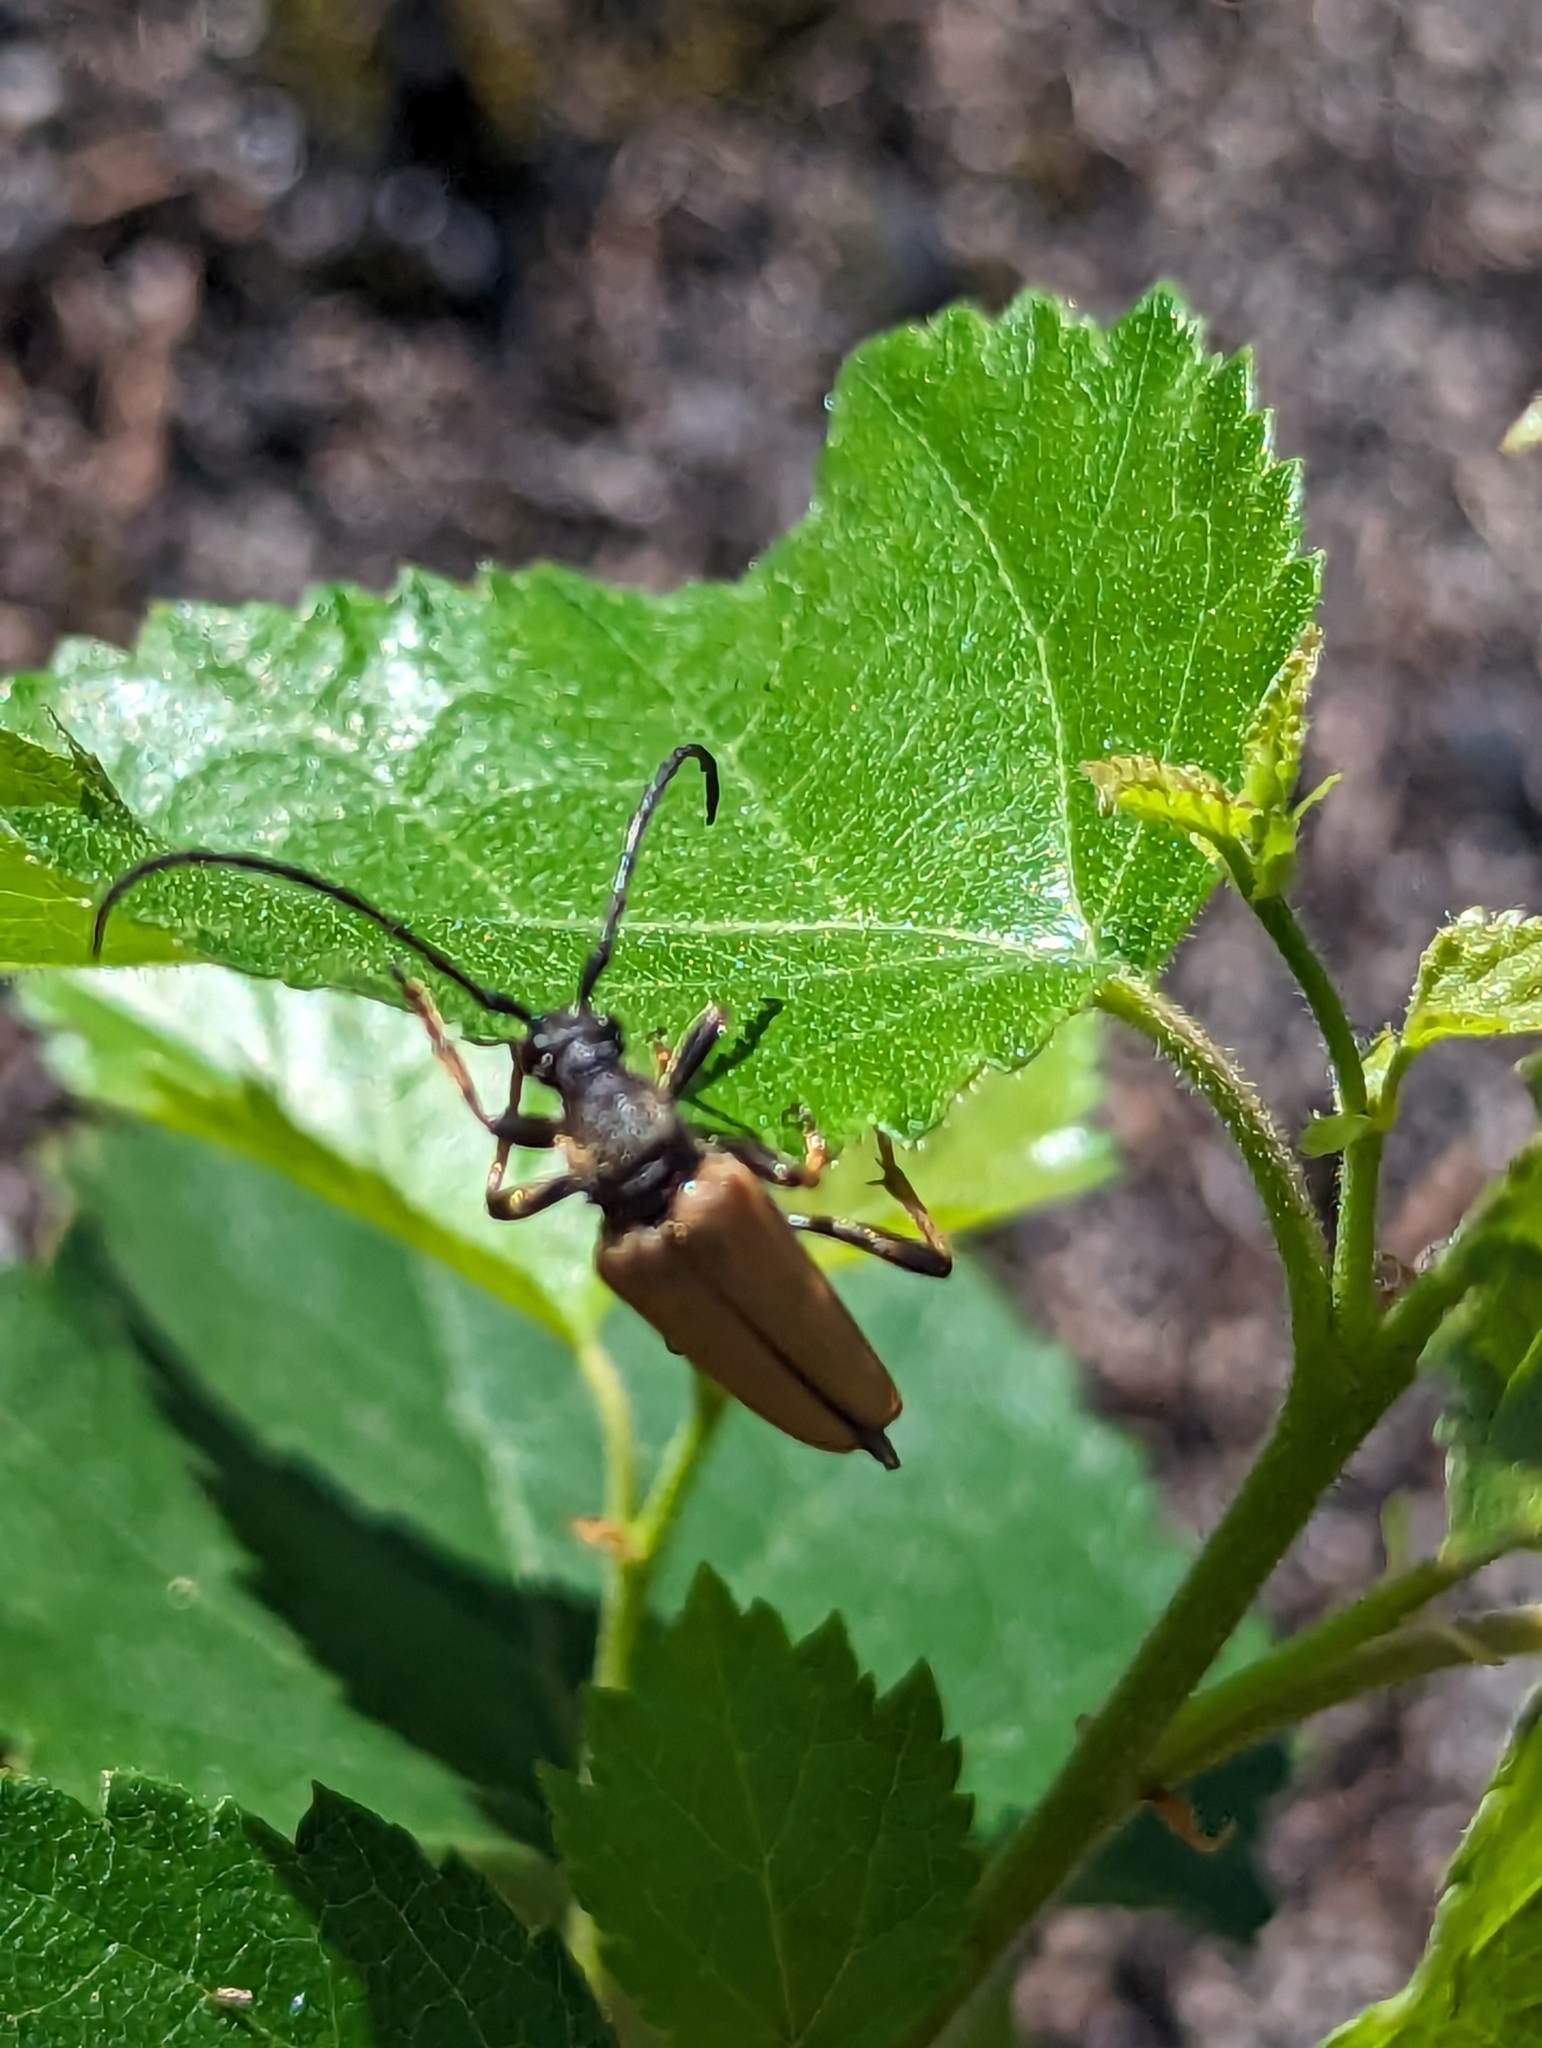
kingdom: Animalia
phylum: Arthropoda
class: Insecta
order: Coleoptera
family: Cerambycidae
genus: Stictoleptura
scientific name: Stictoleptura rubra
